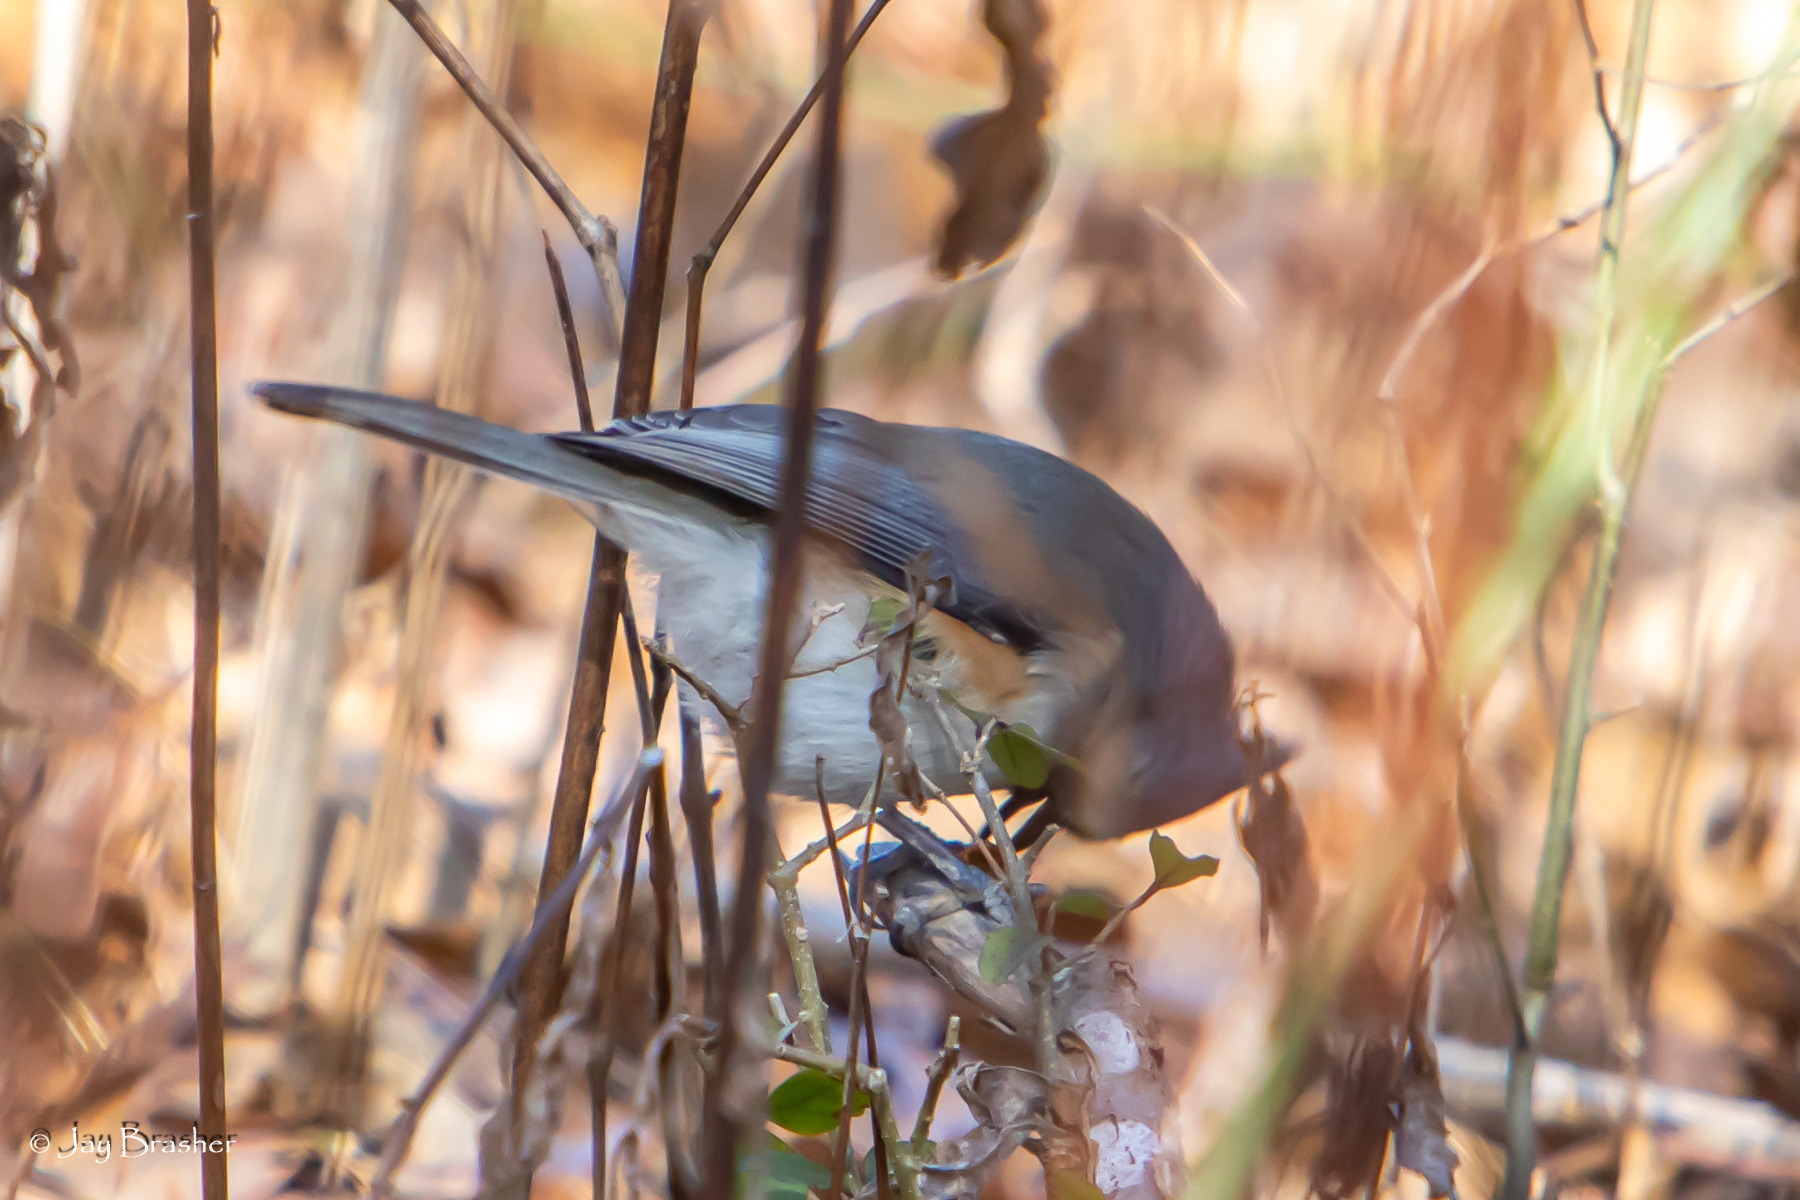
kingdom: Animalia
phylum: Chordata
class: Aves
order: Passeriformes
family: Paridae
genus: Baeolophus
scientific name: Baeolophus bicolor
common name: Tufted titmouse
